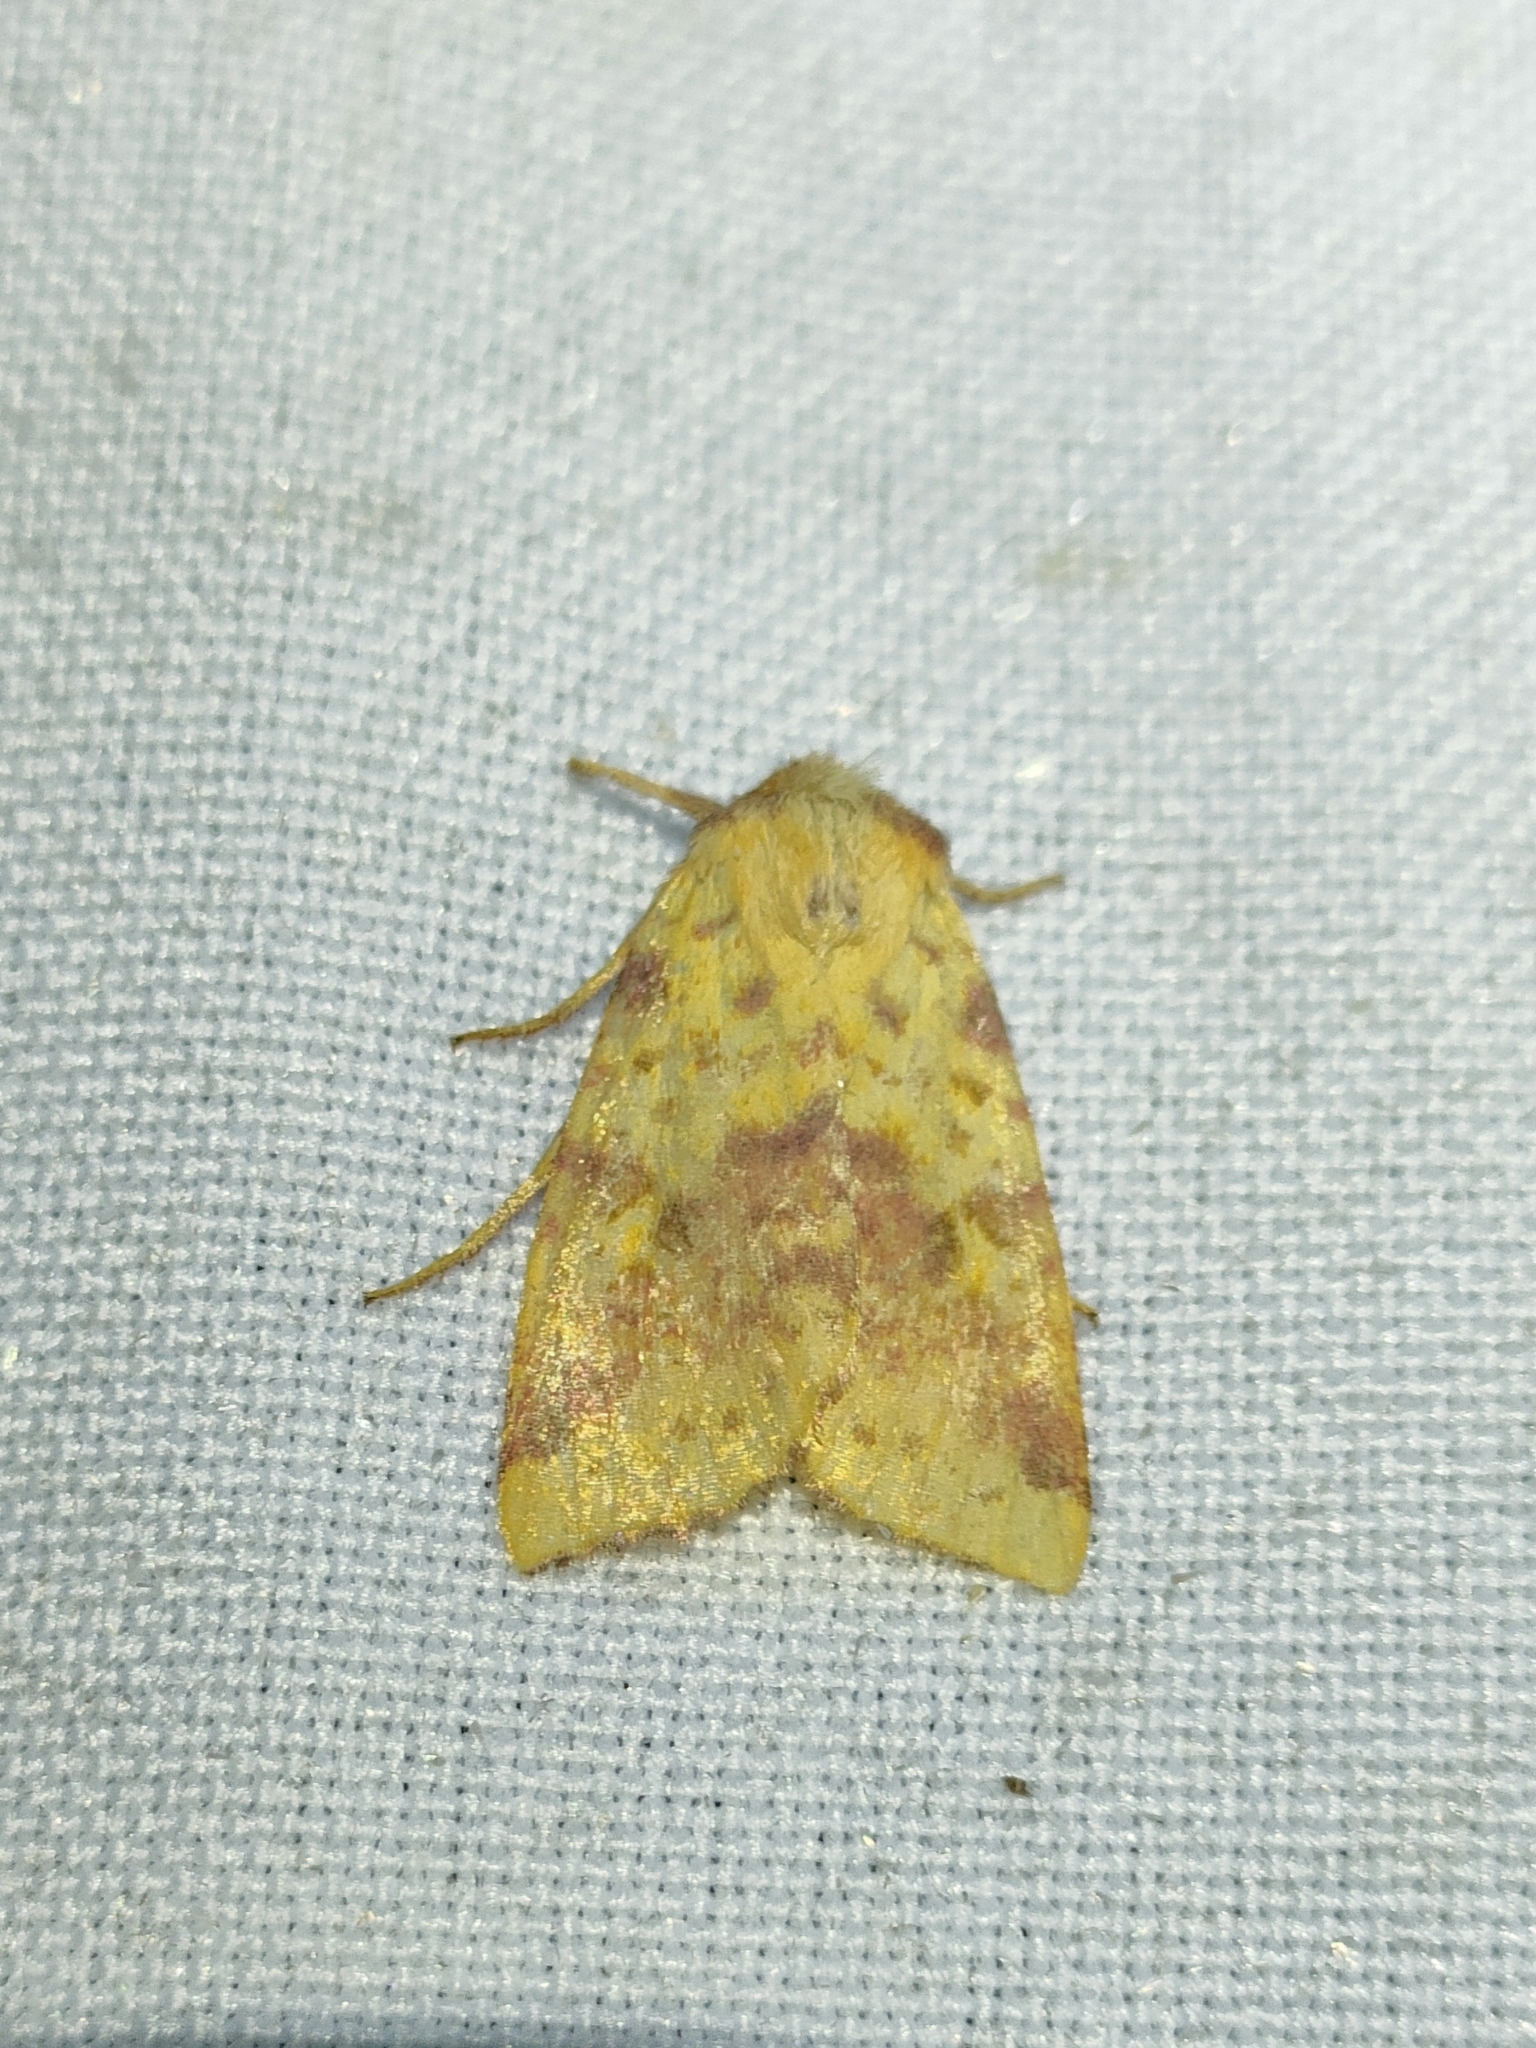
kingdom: Animalia
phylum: Arthropoda
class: Insecta
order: Lepidoptera
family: Noctuidae
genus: Xanthia
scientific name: Xanthia togata
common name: Pink-barred sallow
